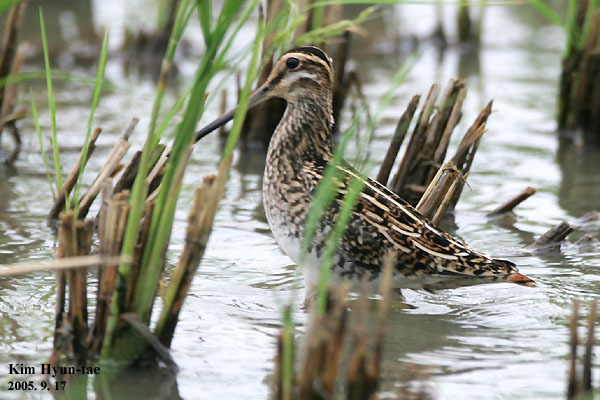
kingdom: Animalia
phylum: Chordata
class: Aves
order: Charadriiformes
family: Scolopacidae
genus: Gallinago
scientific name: Gallinago gallinago
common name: Common snipe
